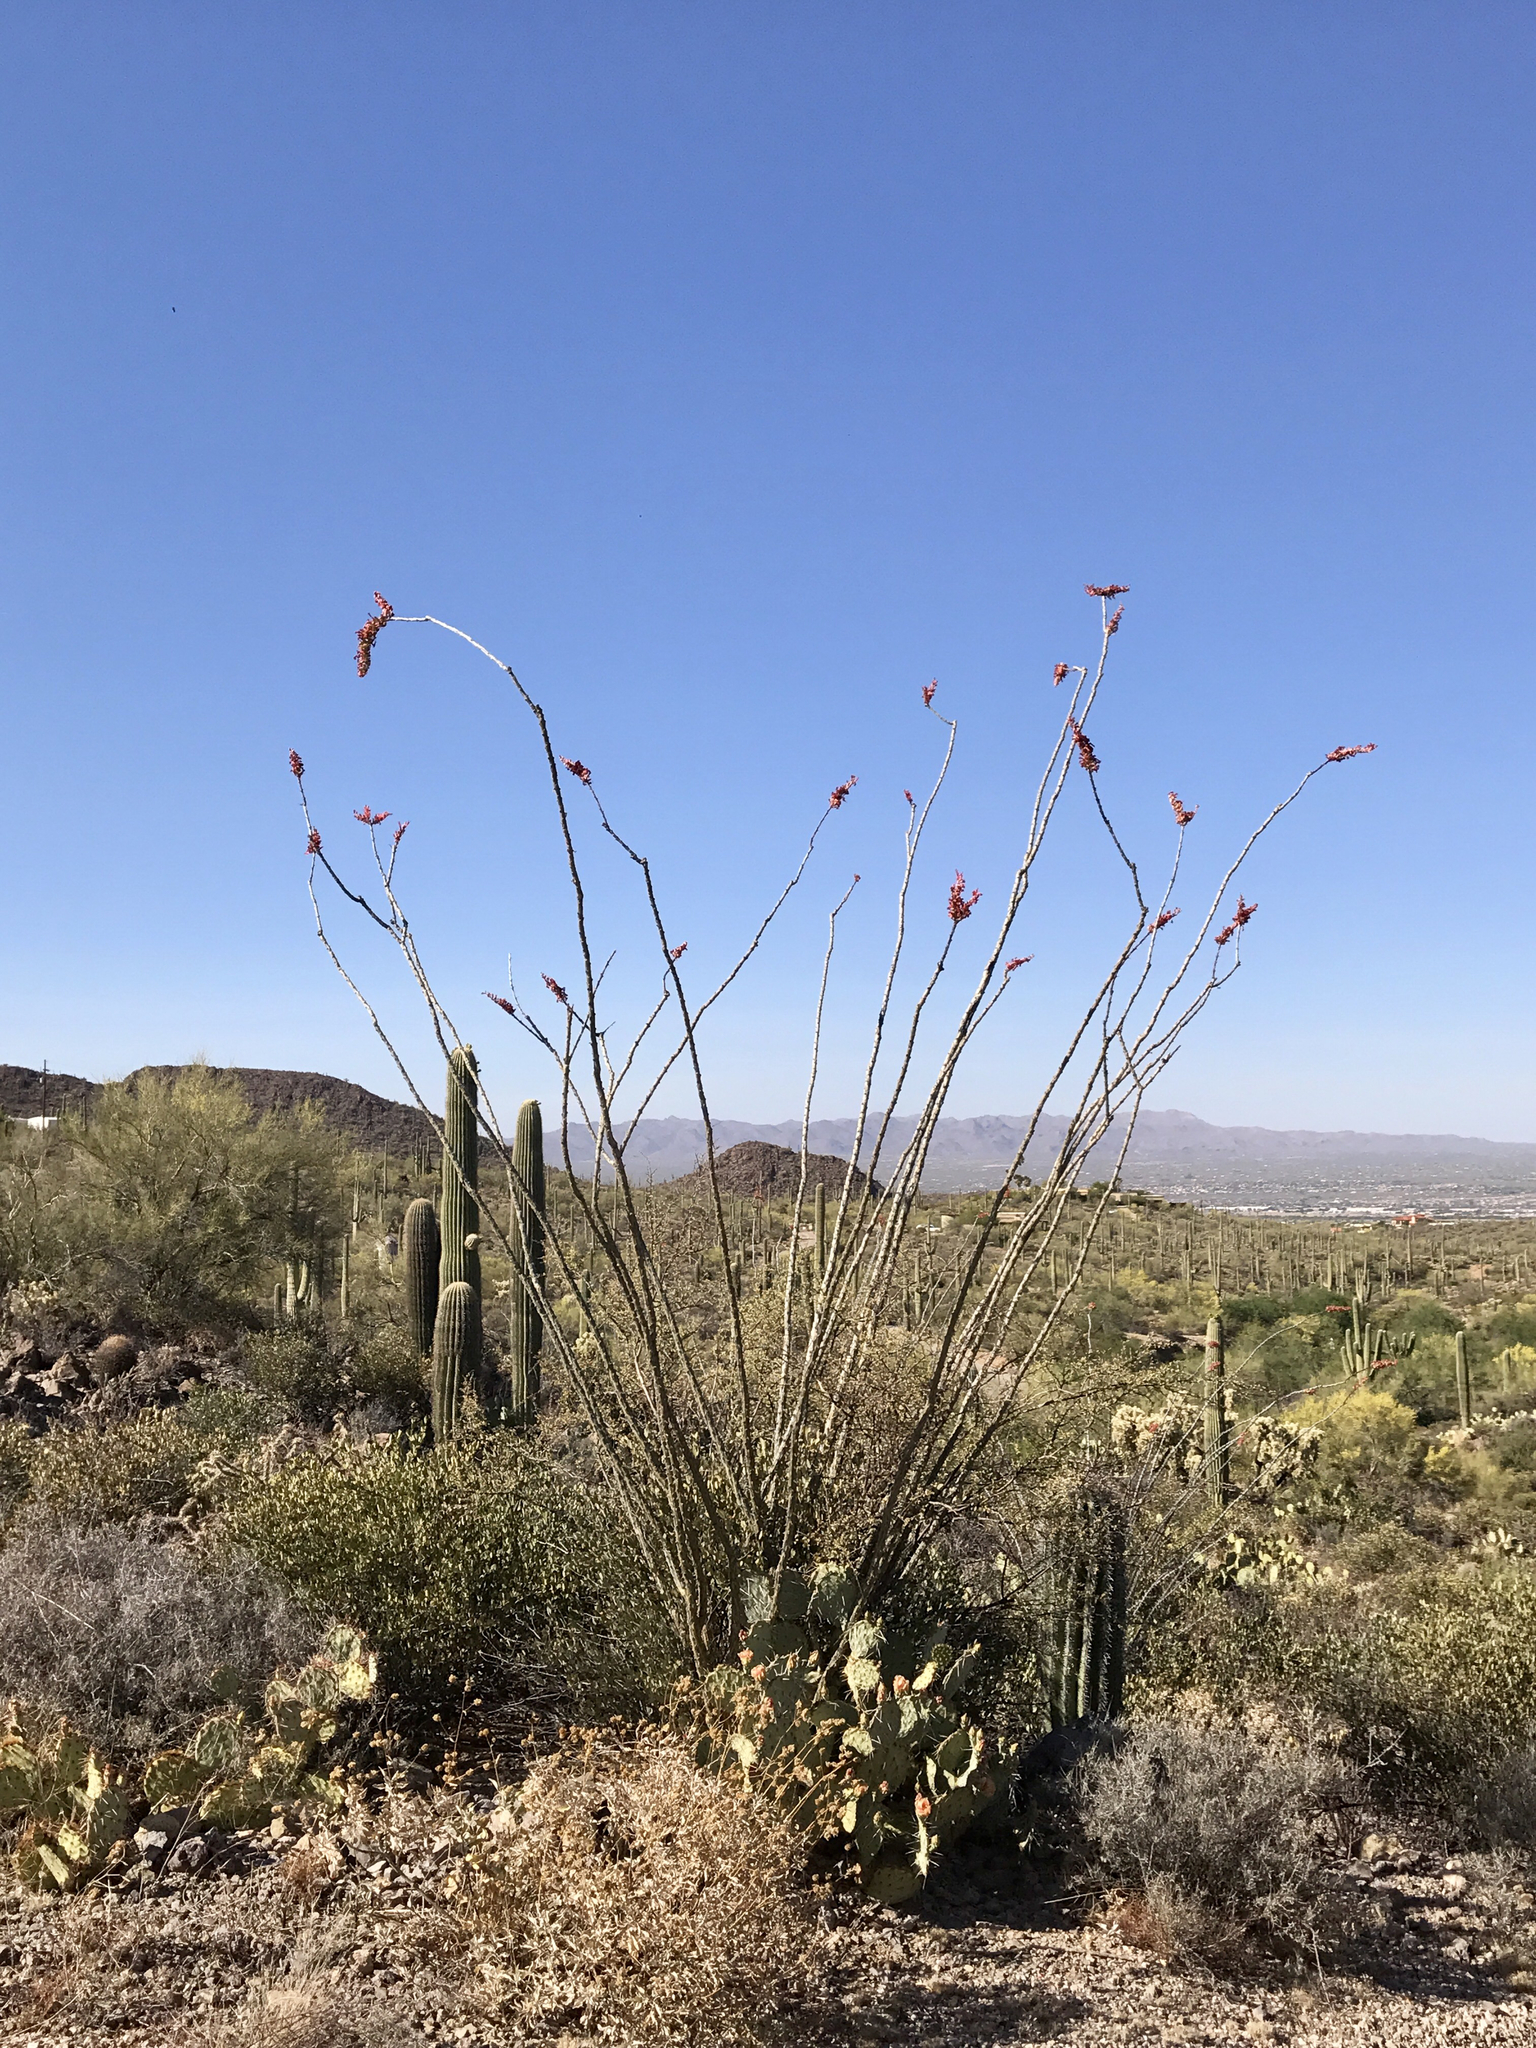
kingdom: Plantae
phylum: Tracheophyta
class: Magnoliopsida
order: Ericales
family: Fouquieriaceae
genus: Fouquieria
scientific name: Fouquieria splendens
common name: Vine-cactus
